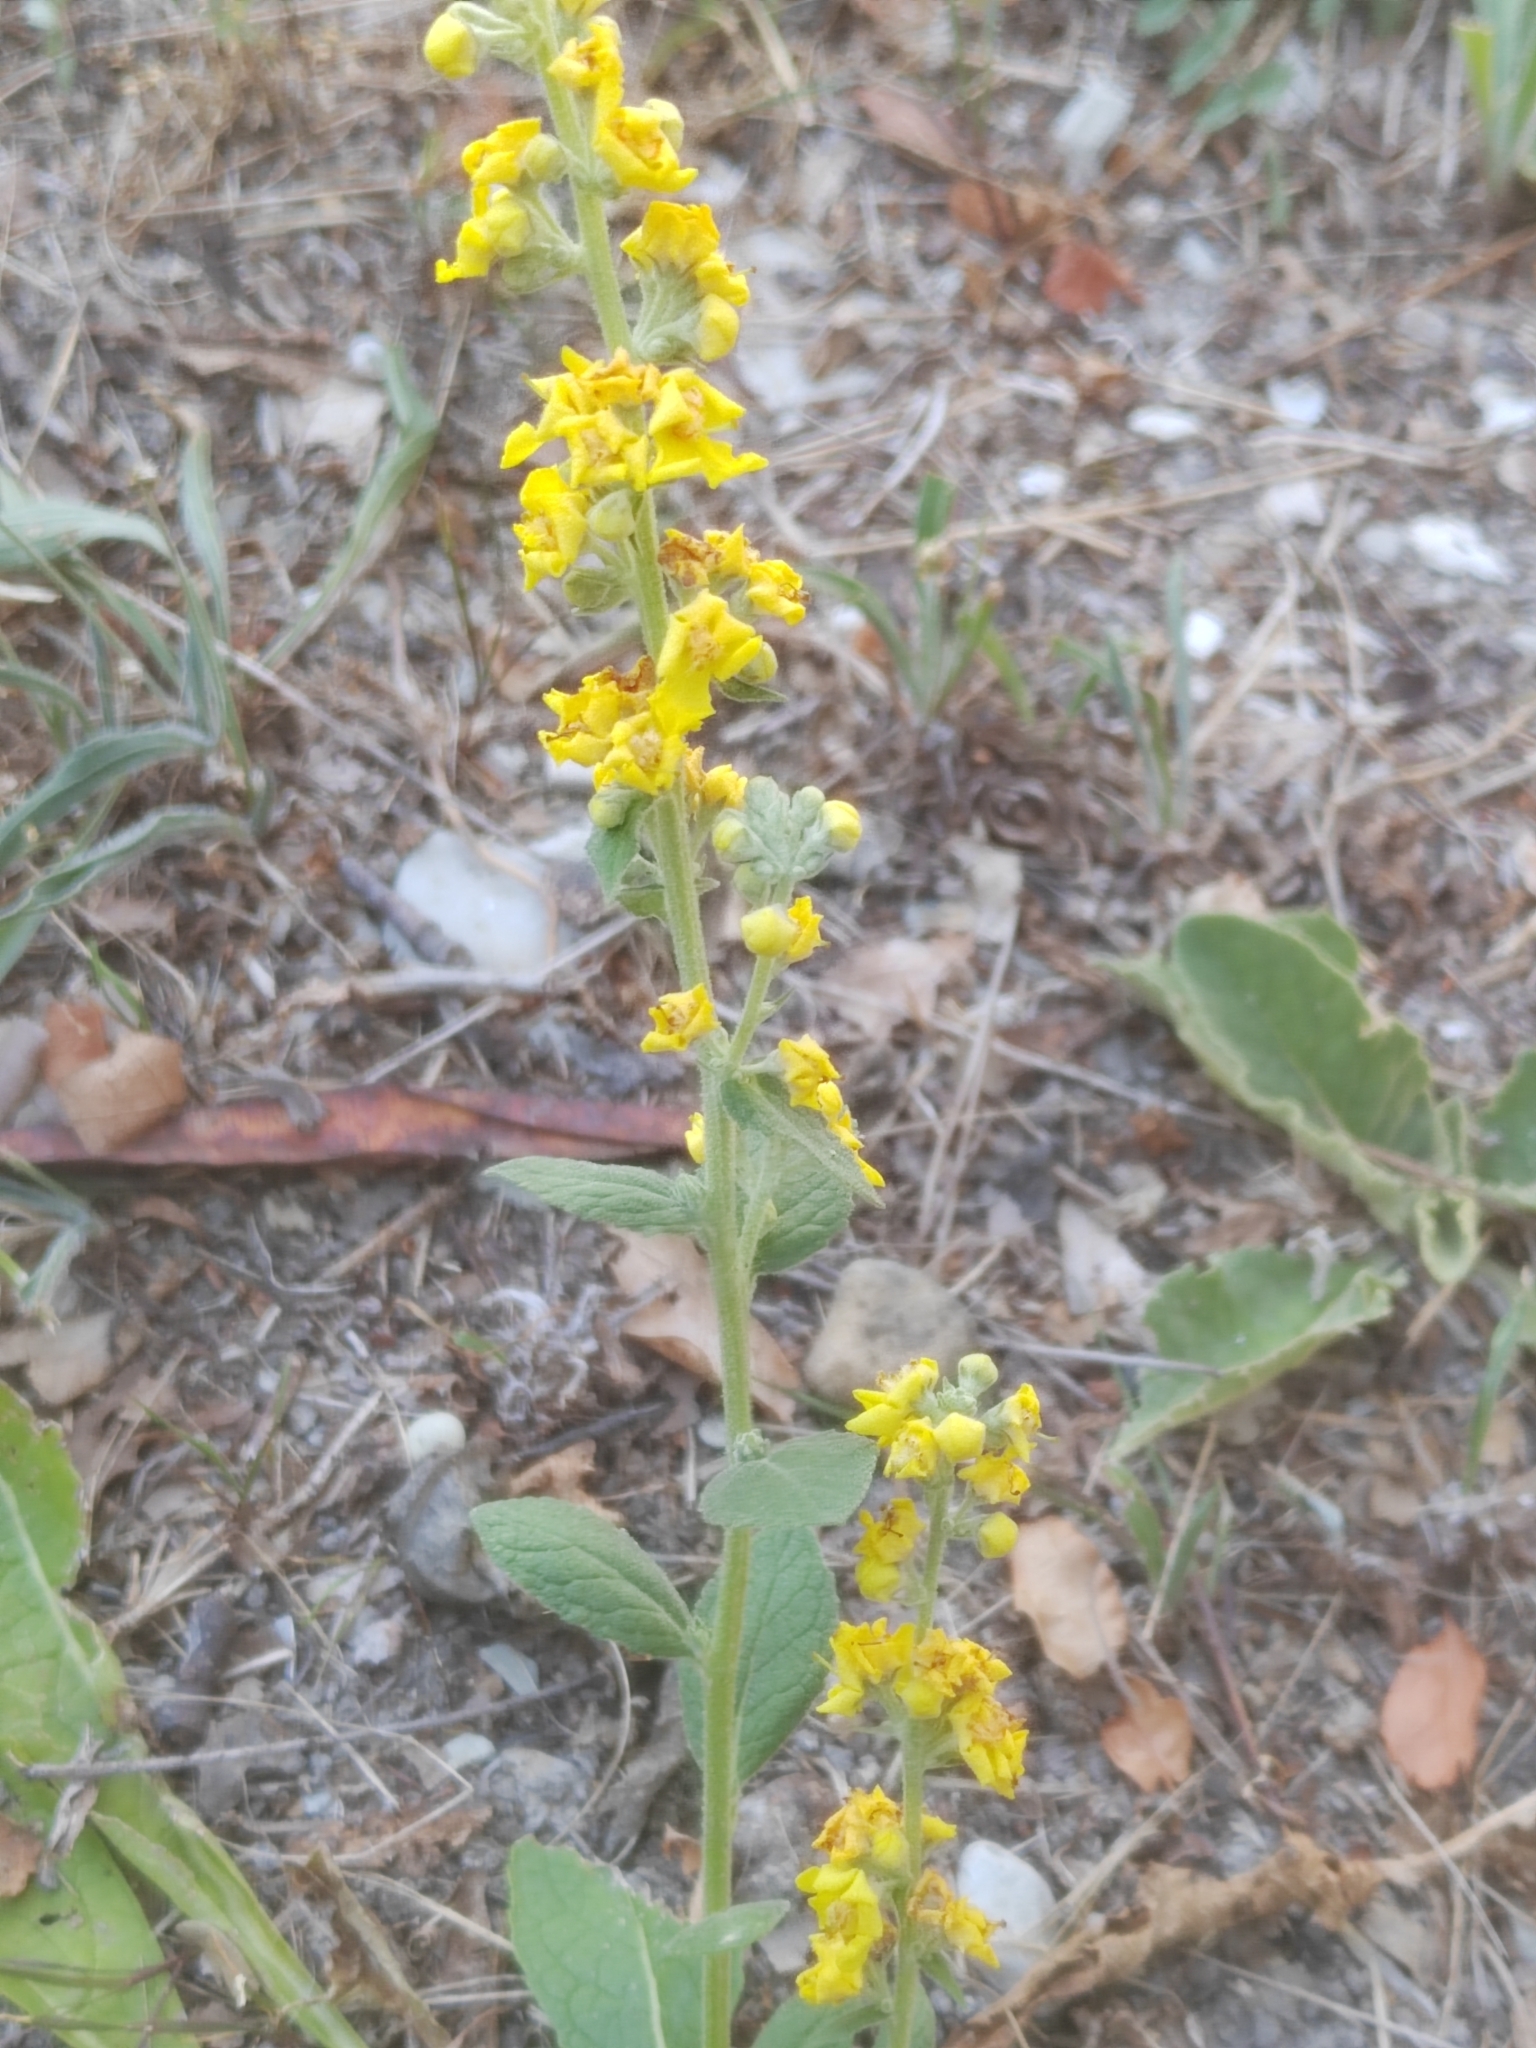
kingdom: Plantae
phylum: Tracheophyta
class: Magnoliopsida
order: Lamiales
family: Scrophulariaceae
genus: Verbascum
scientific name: Verbascum lychnitis
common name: White mullein
